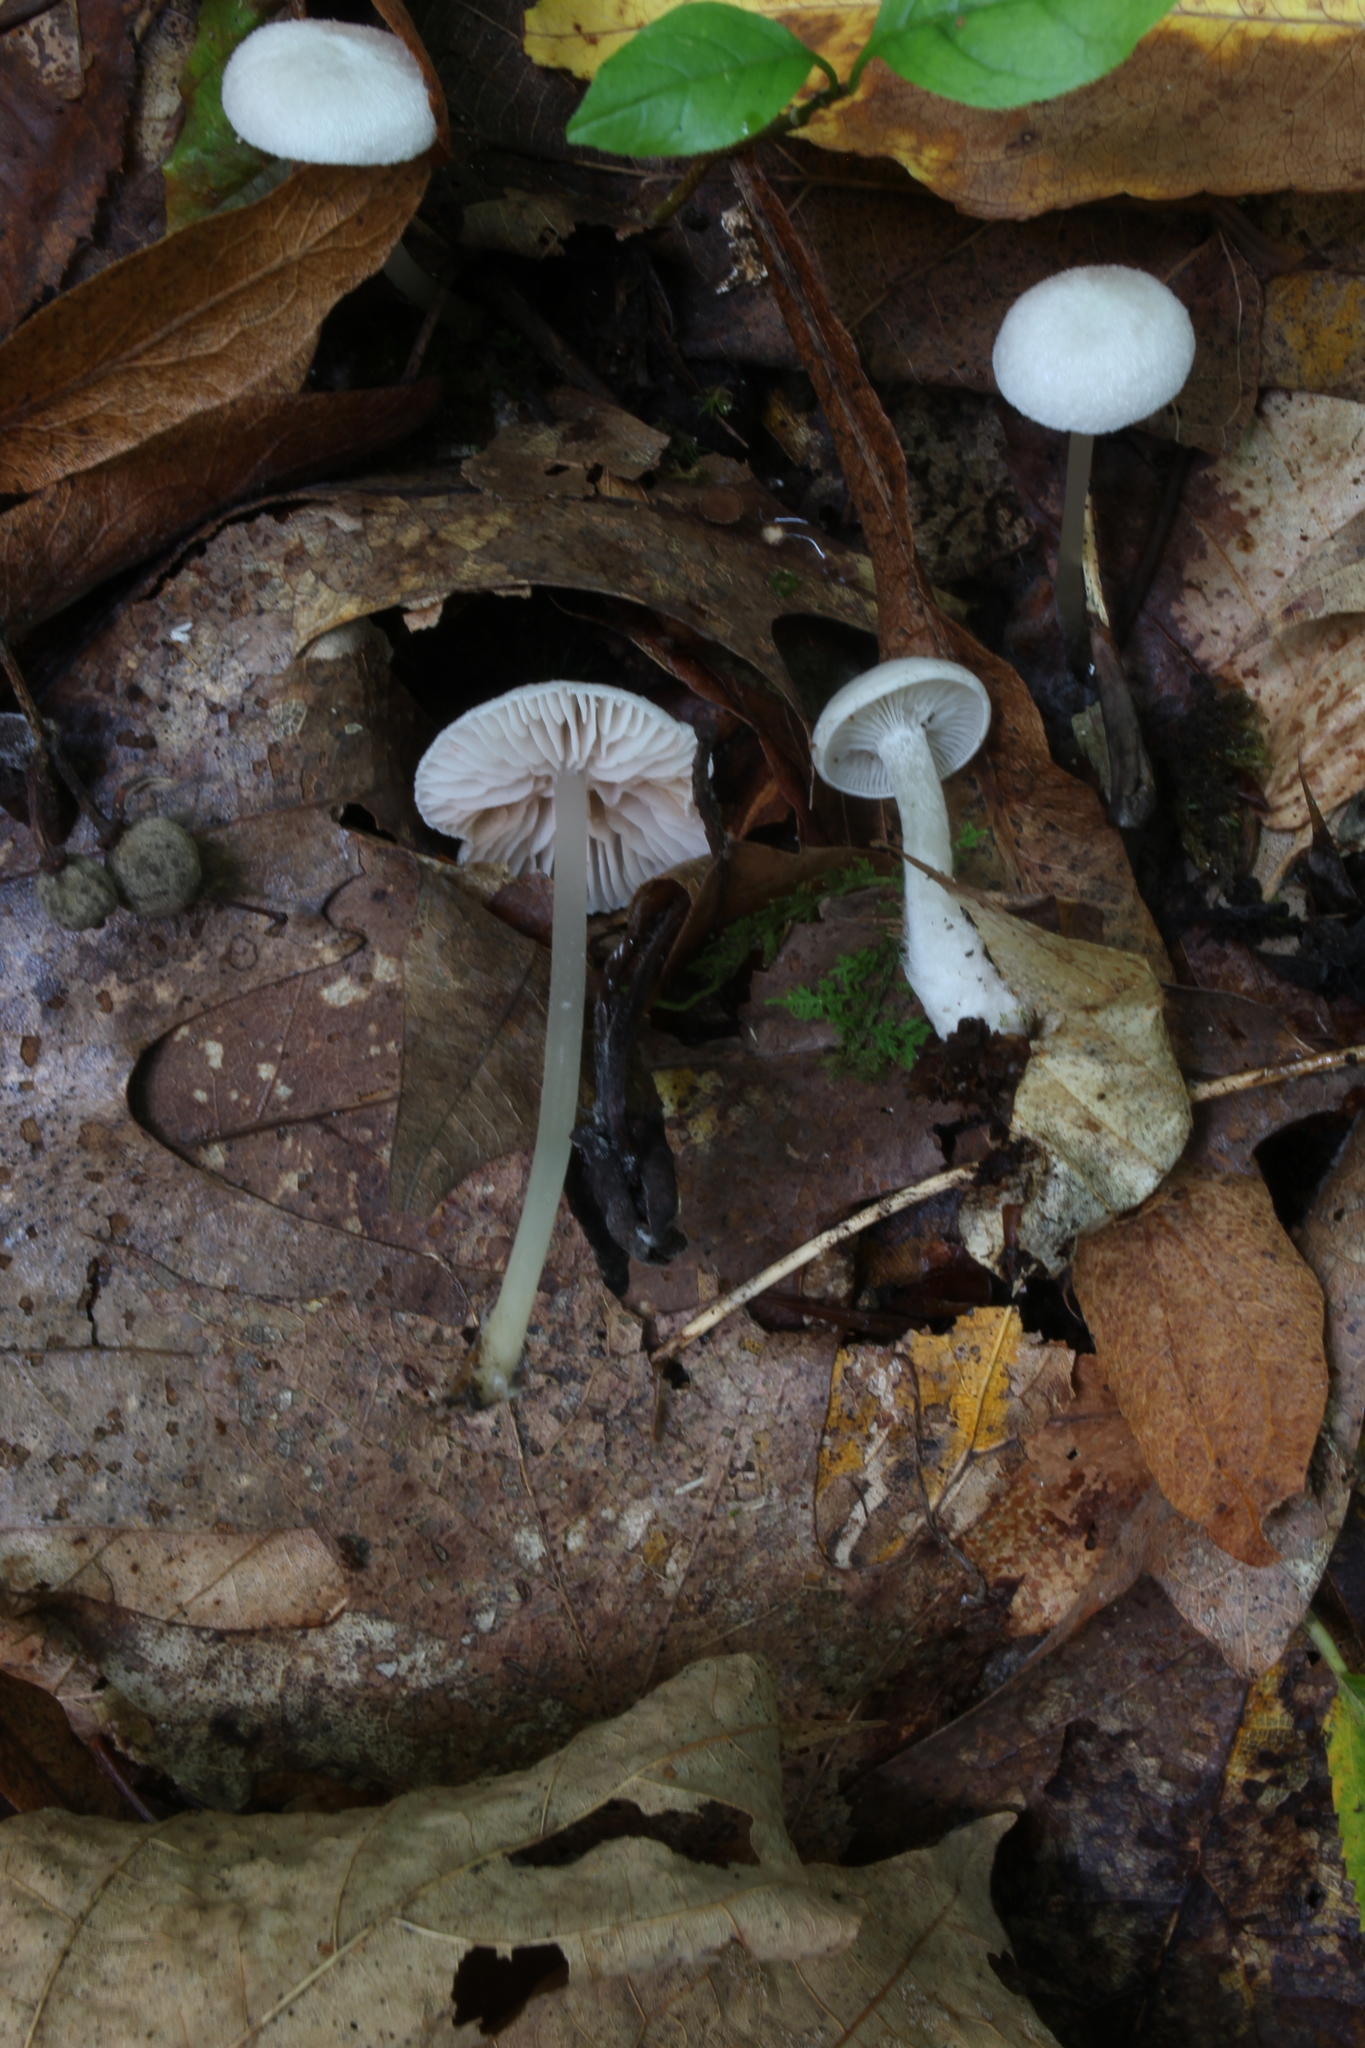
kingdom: Fungi
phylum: Basidiomycota
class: Agaricomycetes
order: Agaricales
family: Entolomataceae
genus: Entoloma
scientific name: Entoloma sericellum
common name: Cream pinkgill
